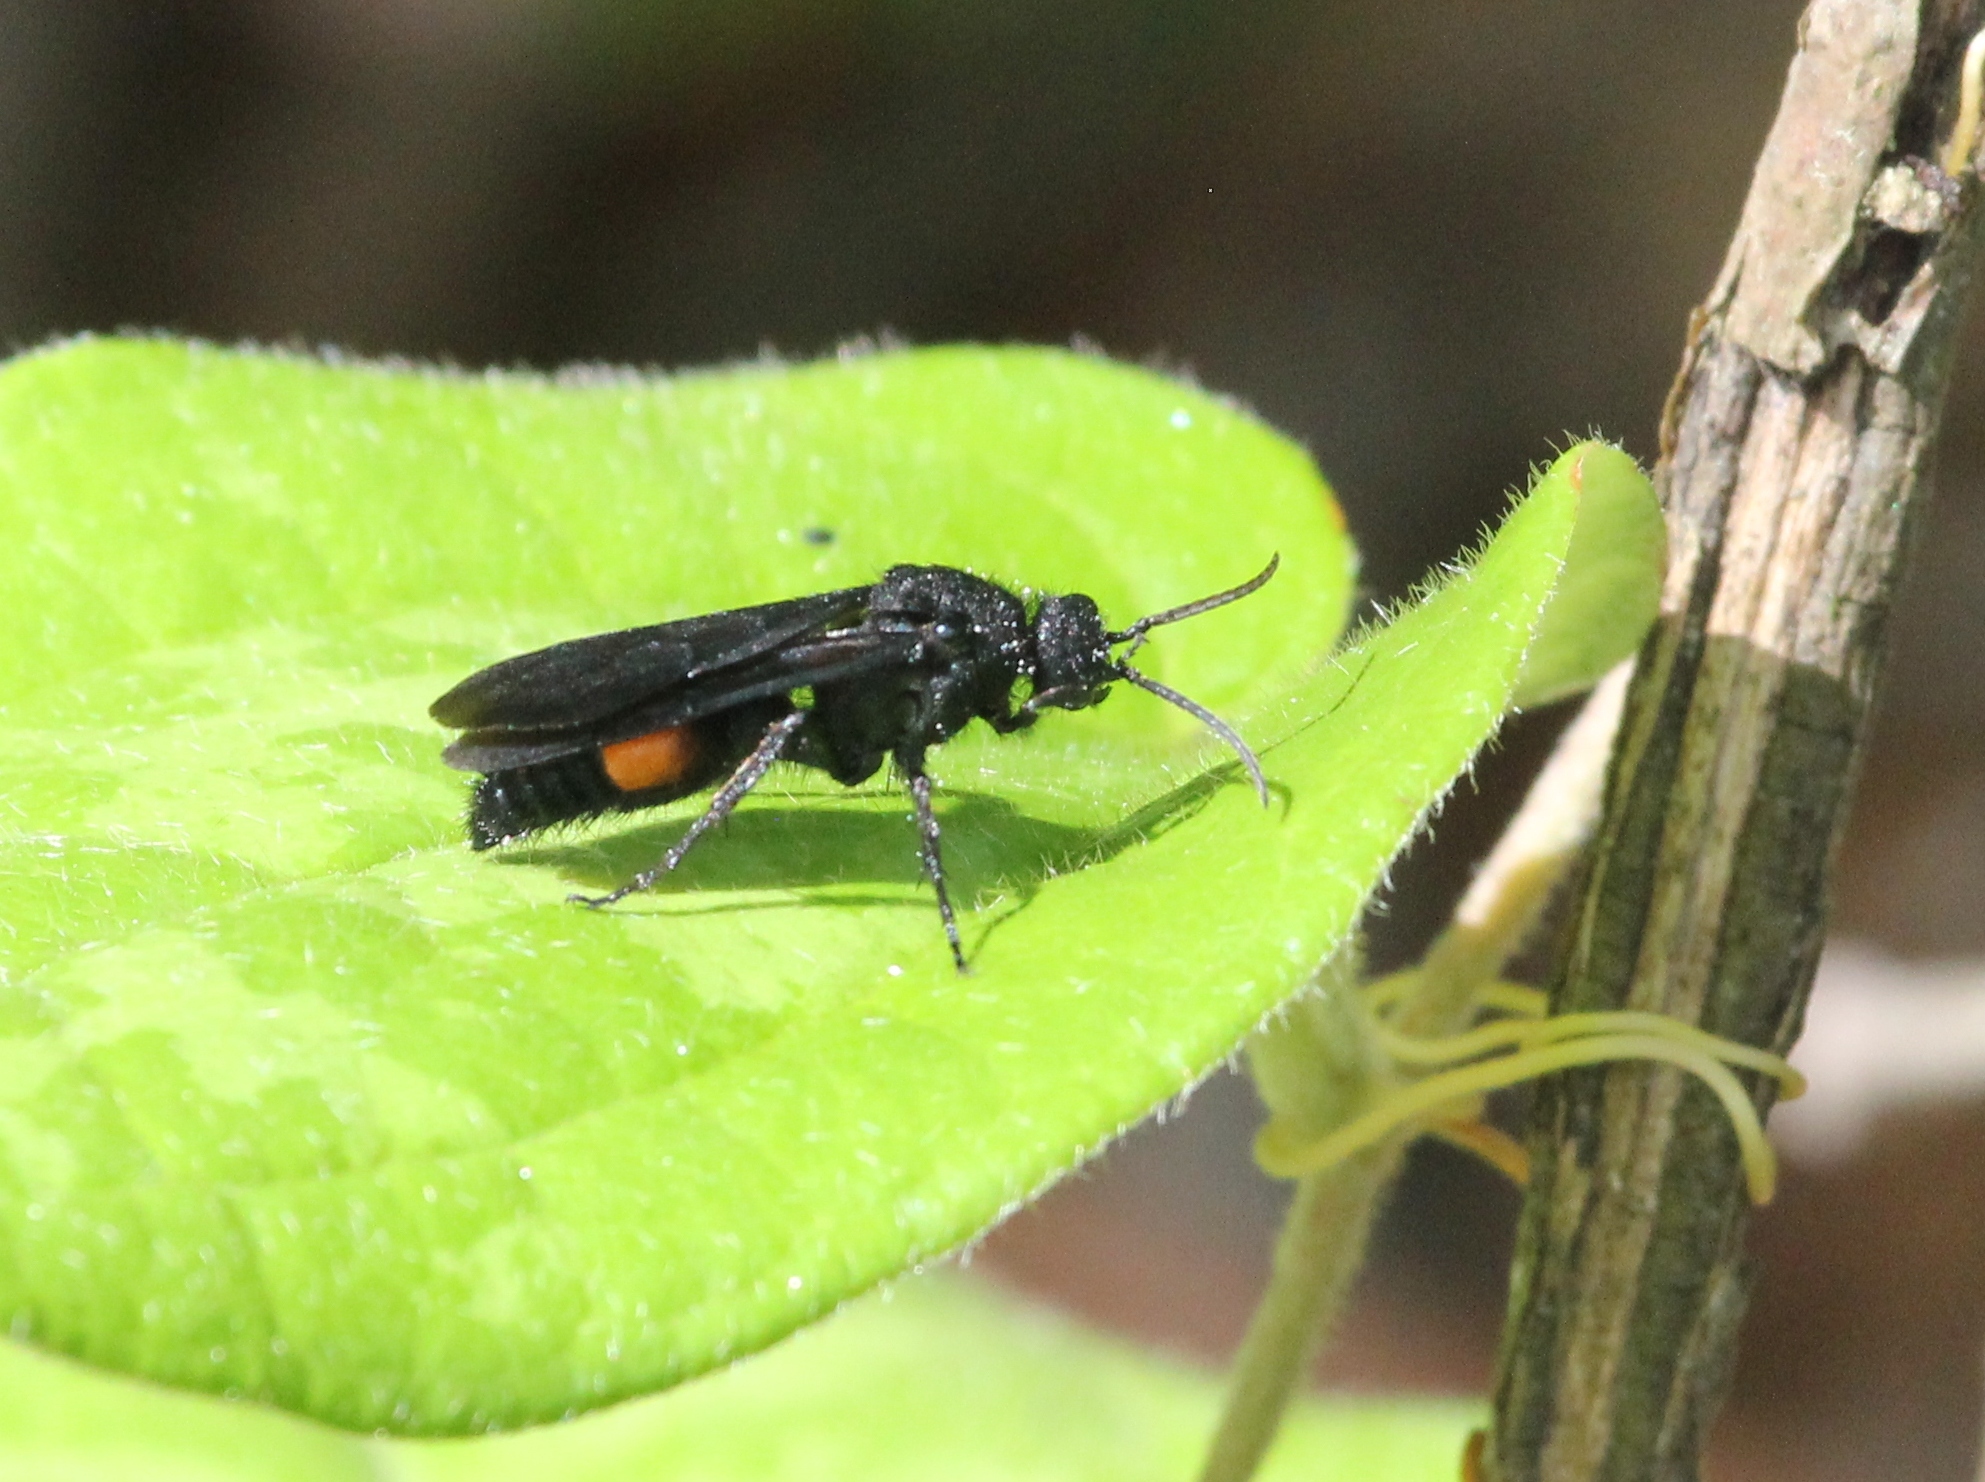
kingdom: Animalia
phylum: Arthropoda
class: Insecta
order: Hymenoptera
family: Mutillidae
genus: Dasymutilla
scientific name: Dasymutilla
